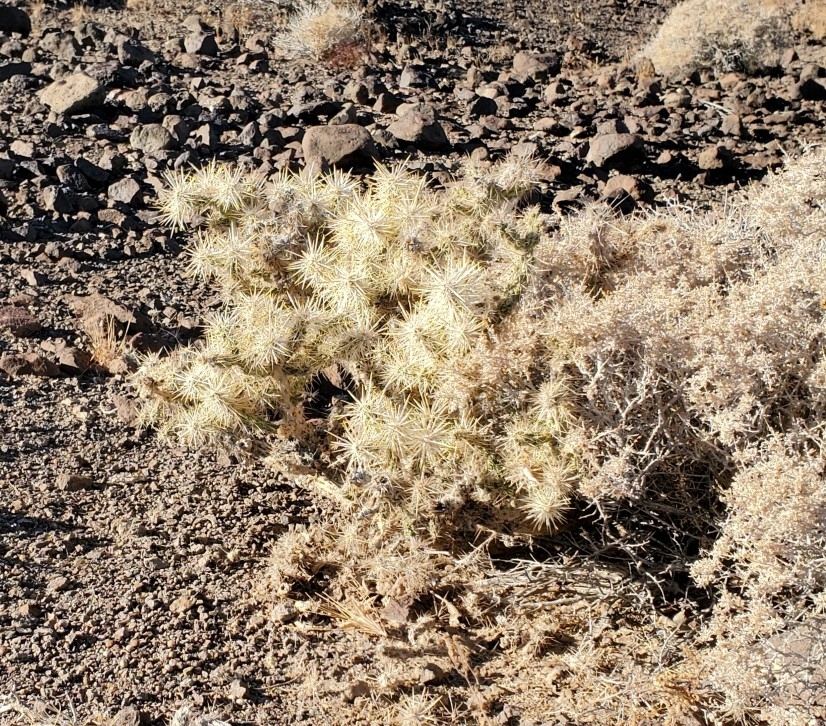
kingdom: Plantae
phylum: Tracheophyta
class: Magnoliopsida
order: Caryophyllales
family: Cactaceae
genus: Cylindropuntia
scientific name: Cylindropuntia echinocarpa
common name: Ground cholla
